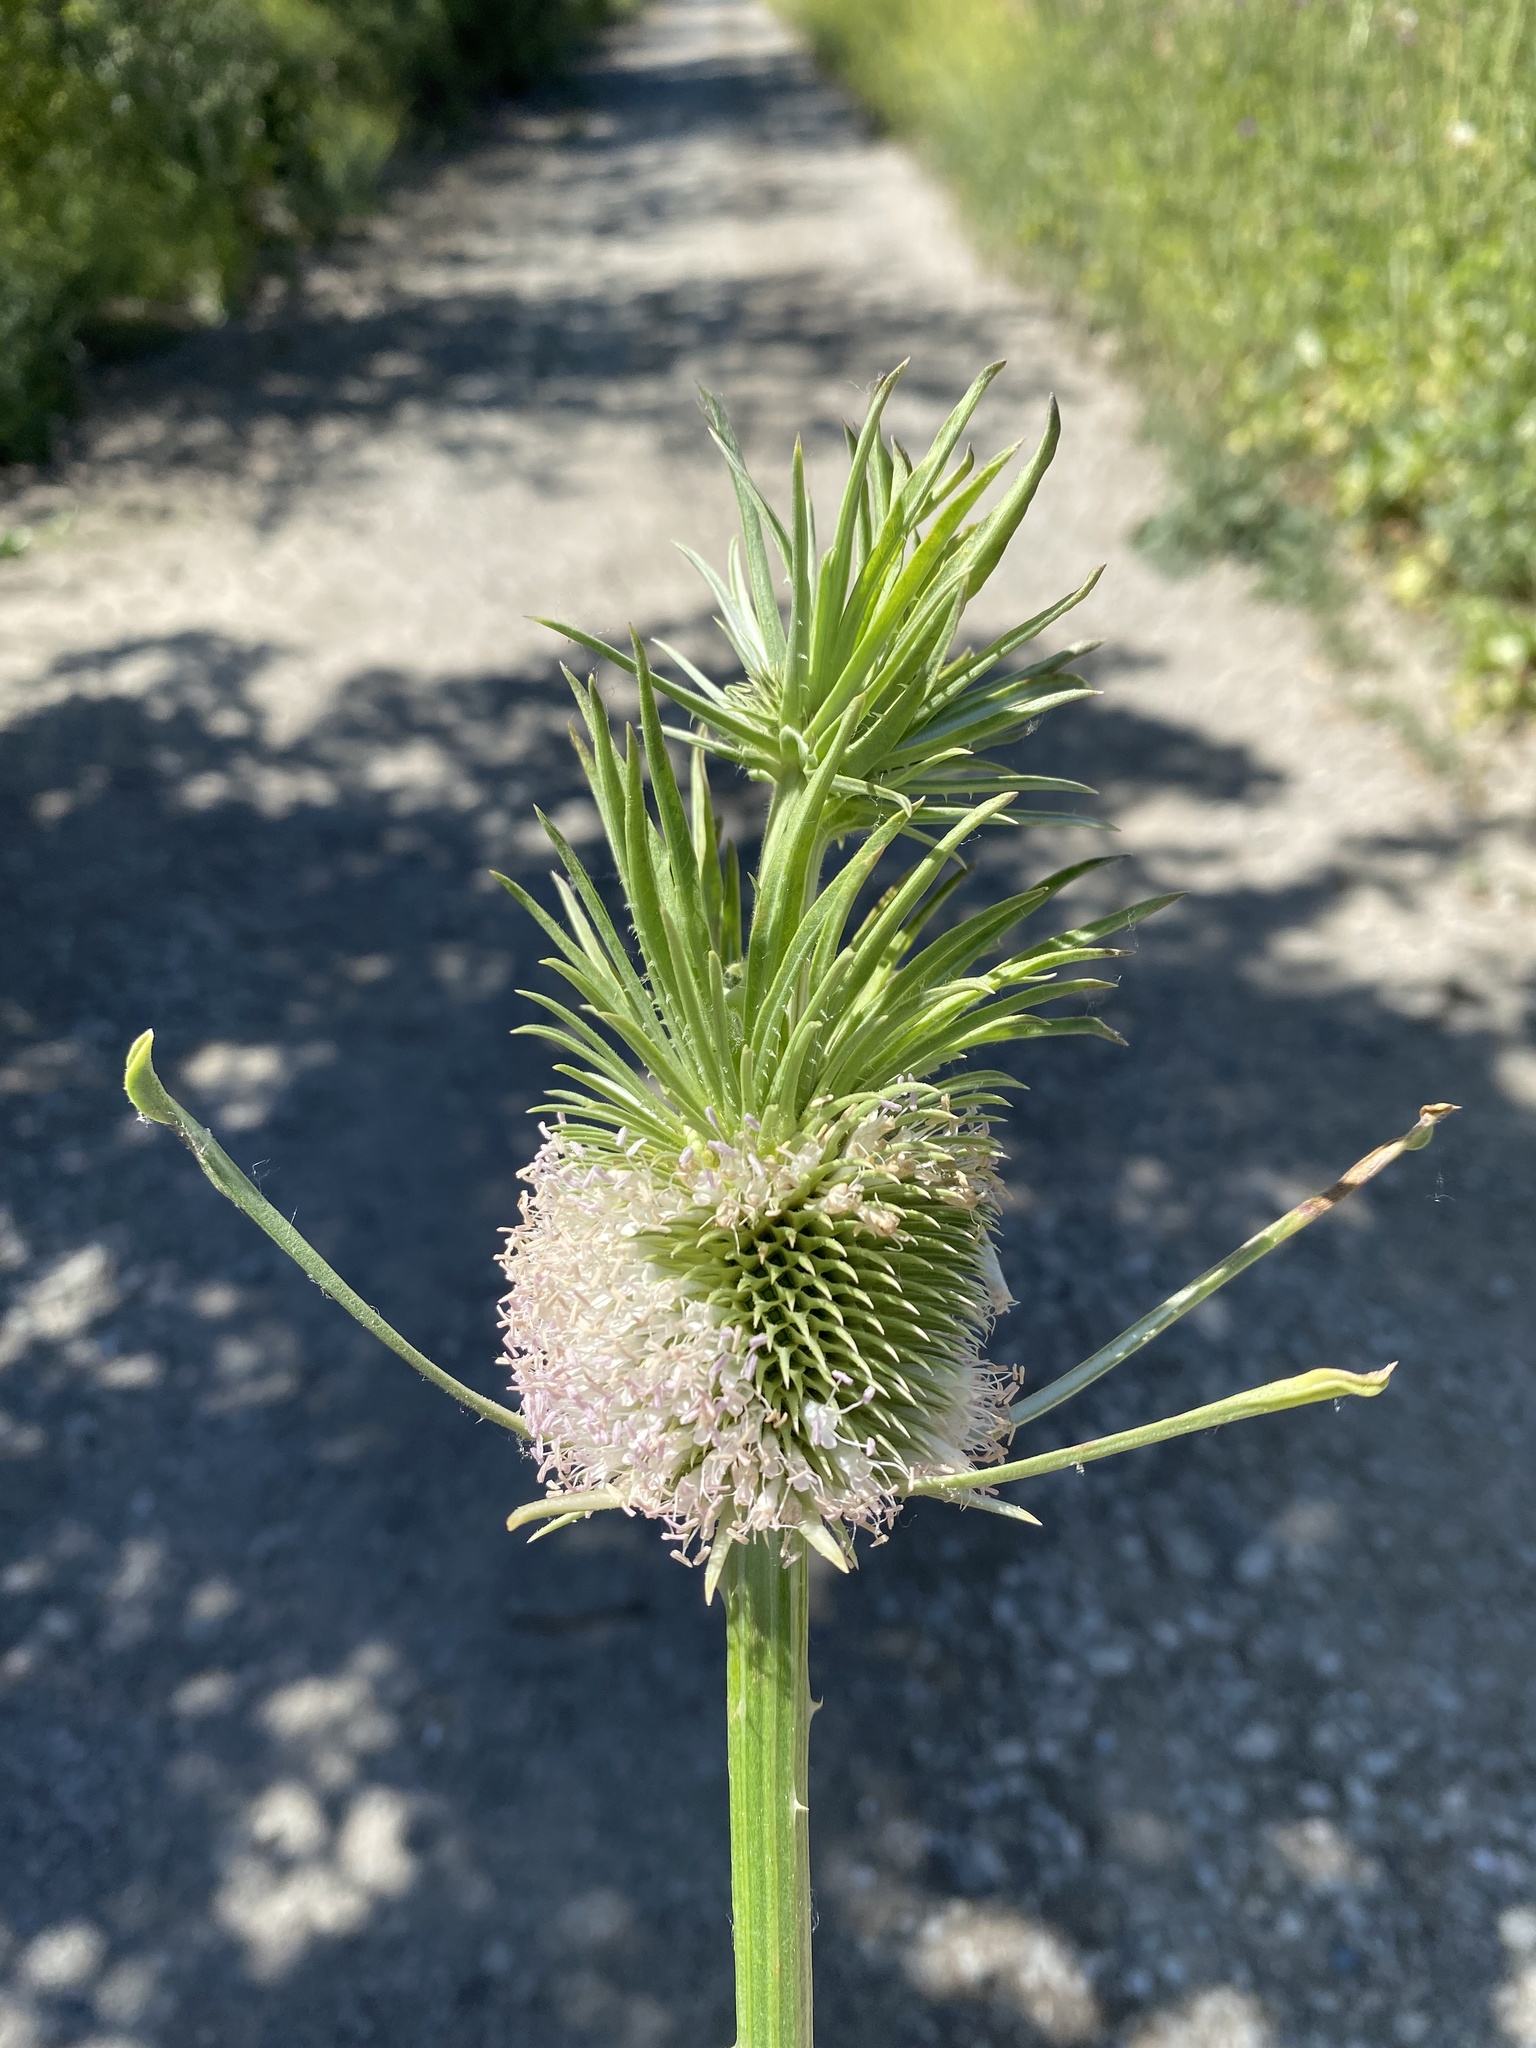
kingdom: Plantae
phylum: Tracheophyta
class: Magnoliopsida
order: Dipsacales
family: Caprifoliaceae
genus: Dipsacus
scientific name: Dipsacus sativus
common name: Fuller's teasel
